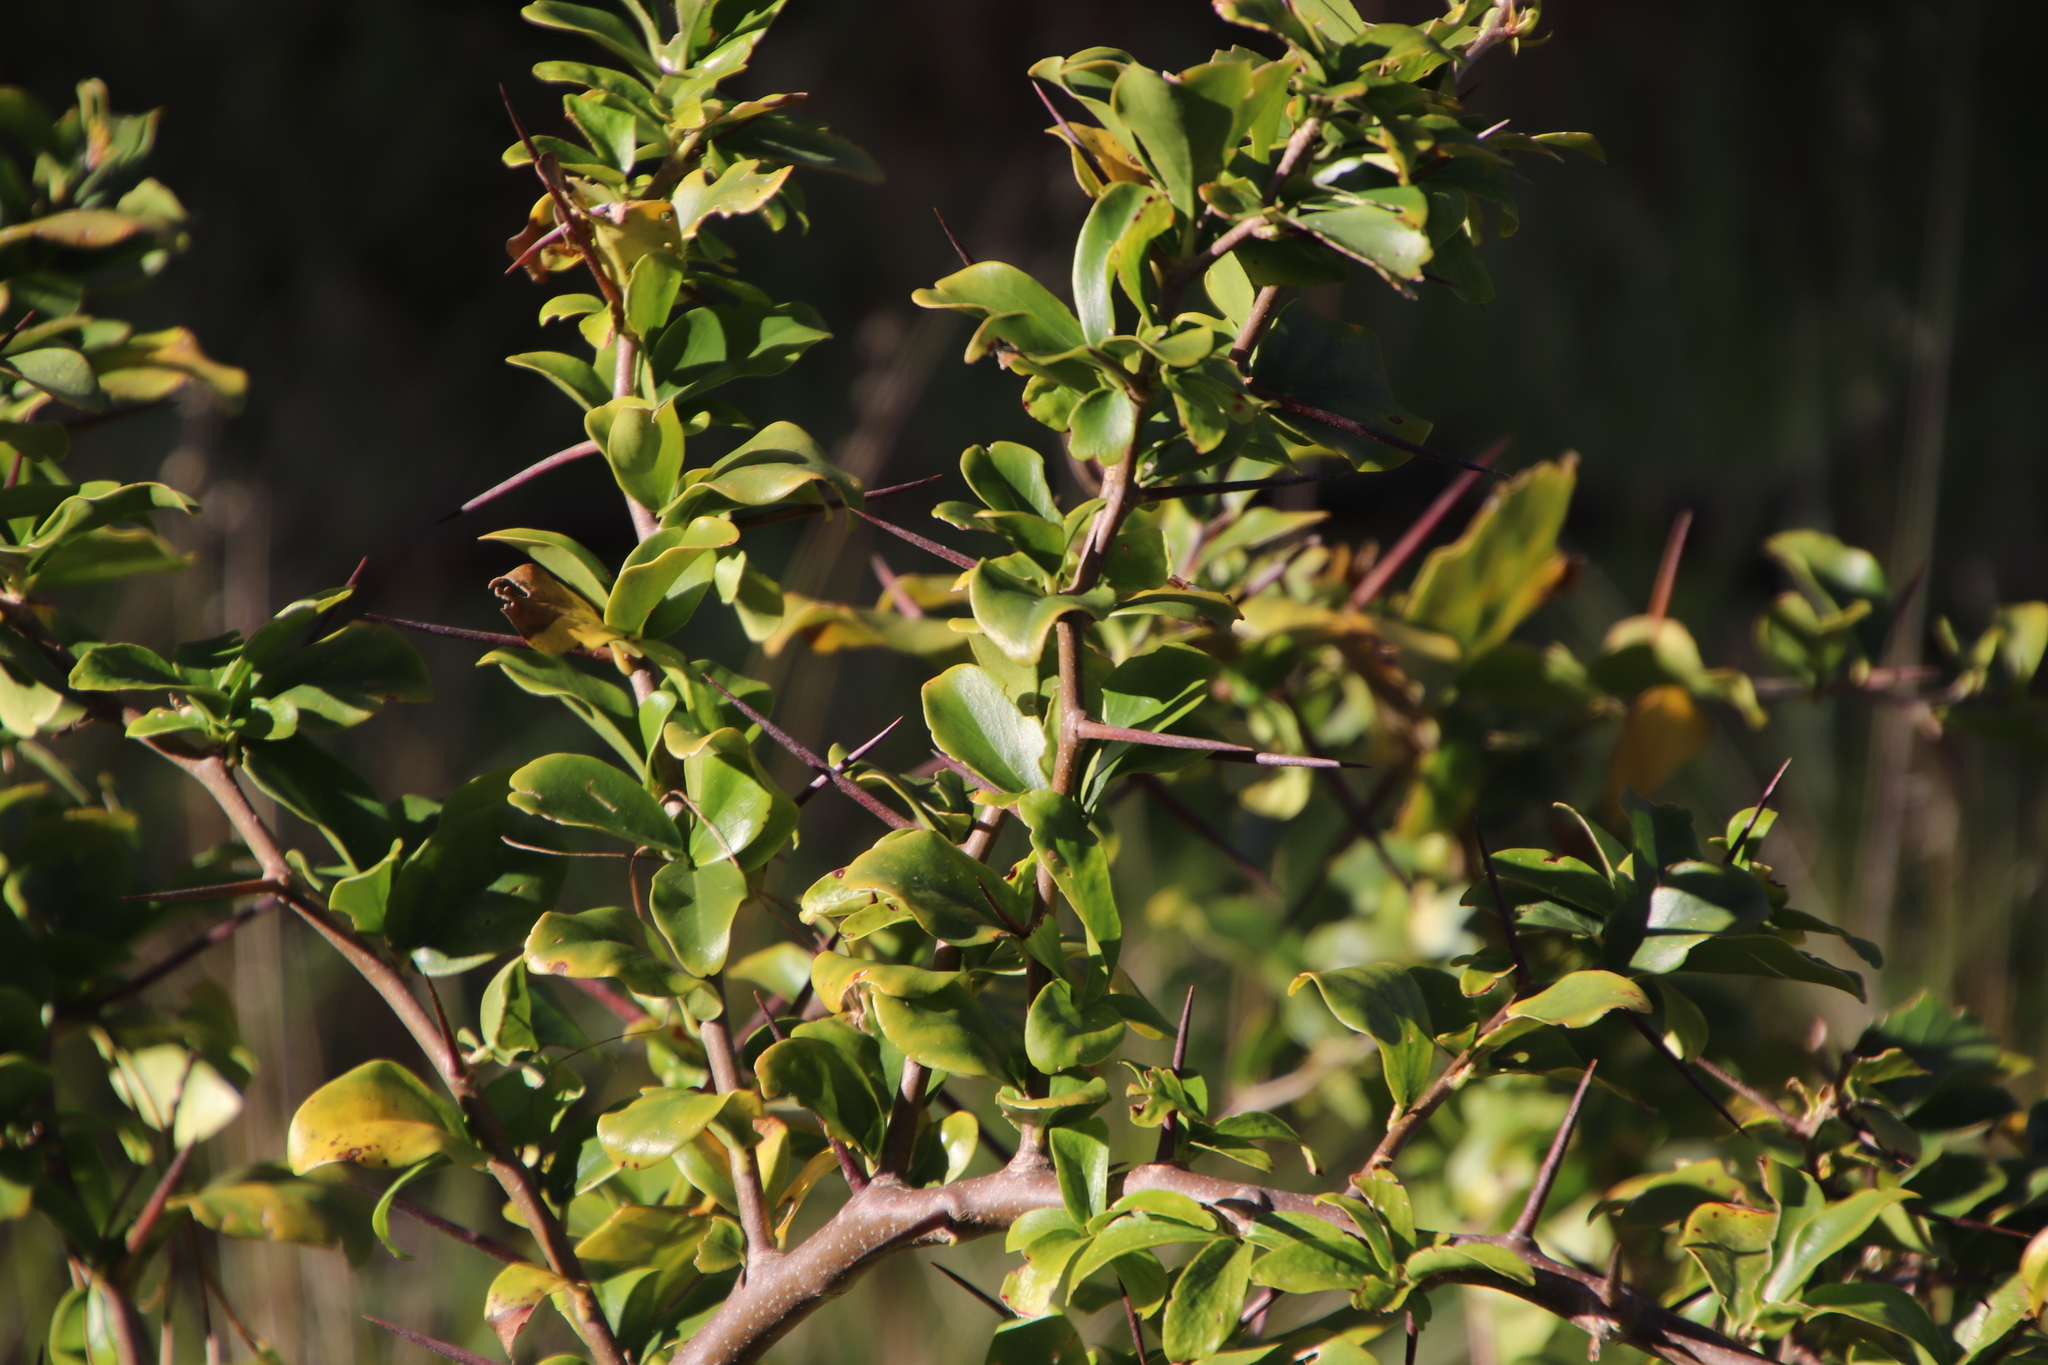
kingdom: Plantae
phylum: Tracheophyta
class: Magnoliopsida
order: Solanales
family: Solanaceae
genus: Lycium
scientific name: Lycium ferocissimum
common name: African boxthorn
